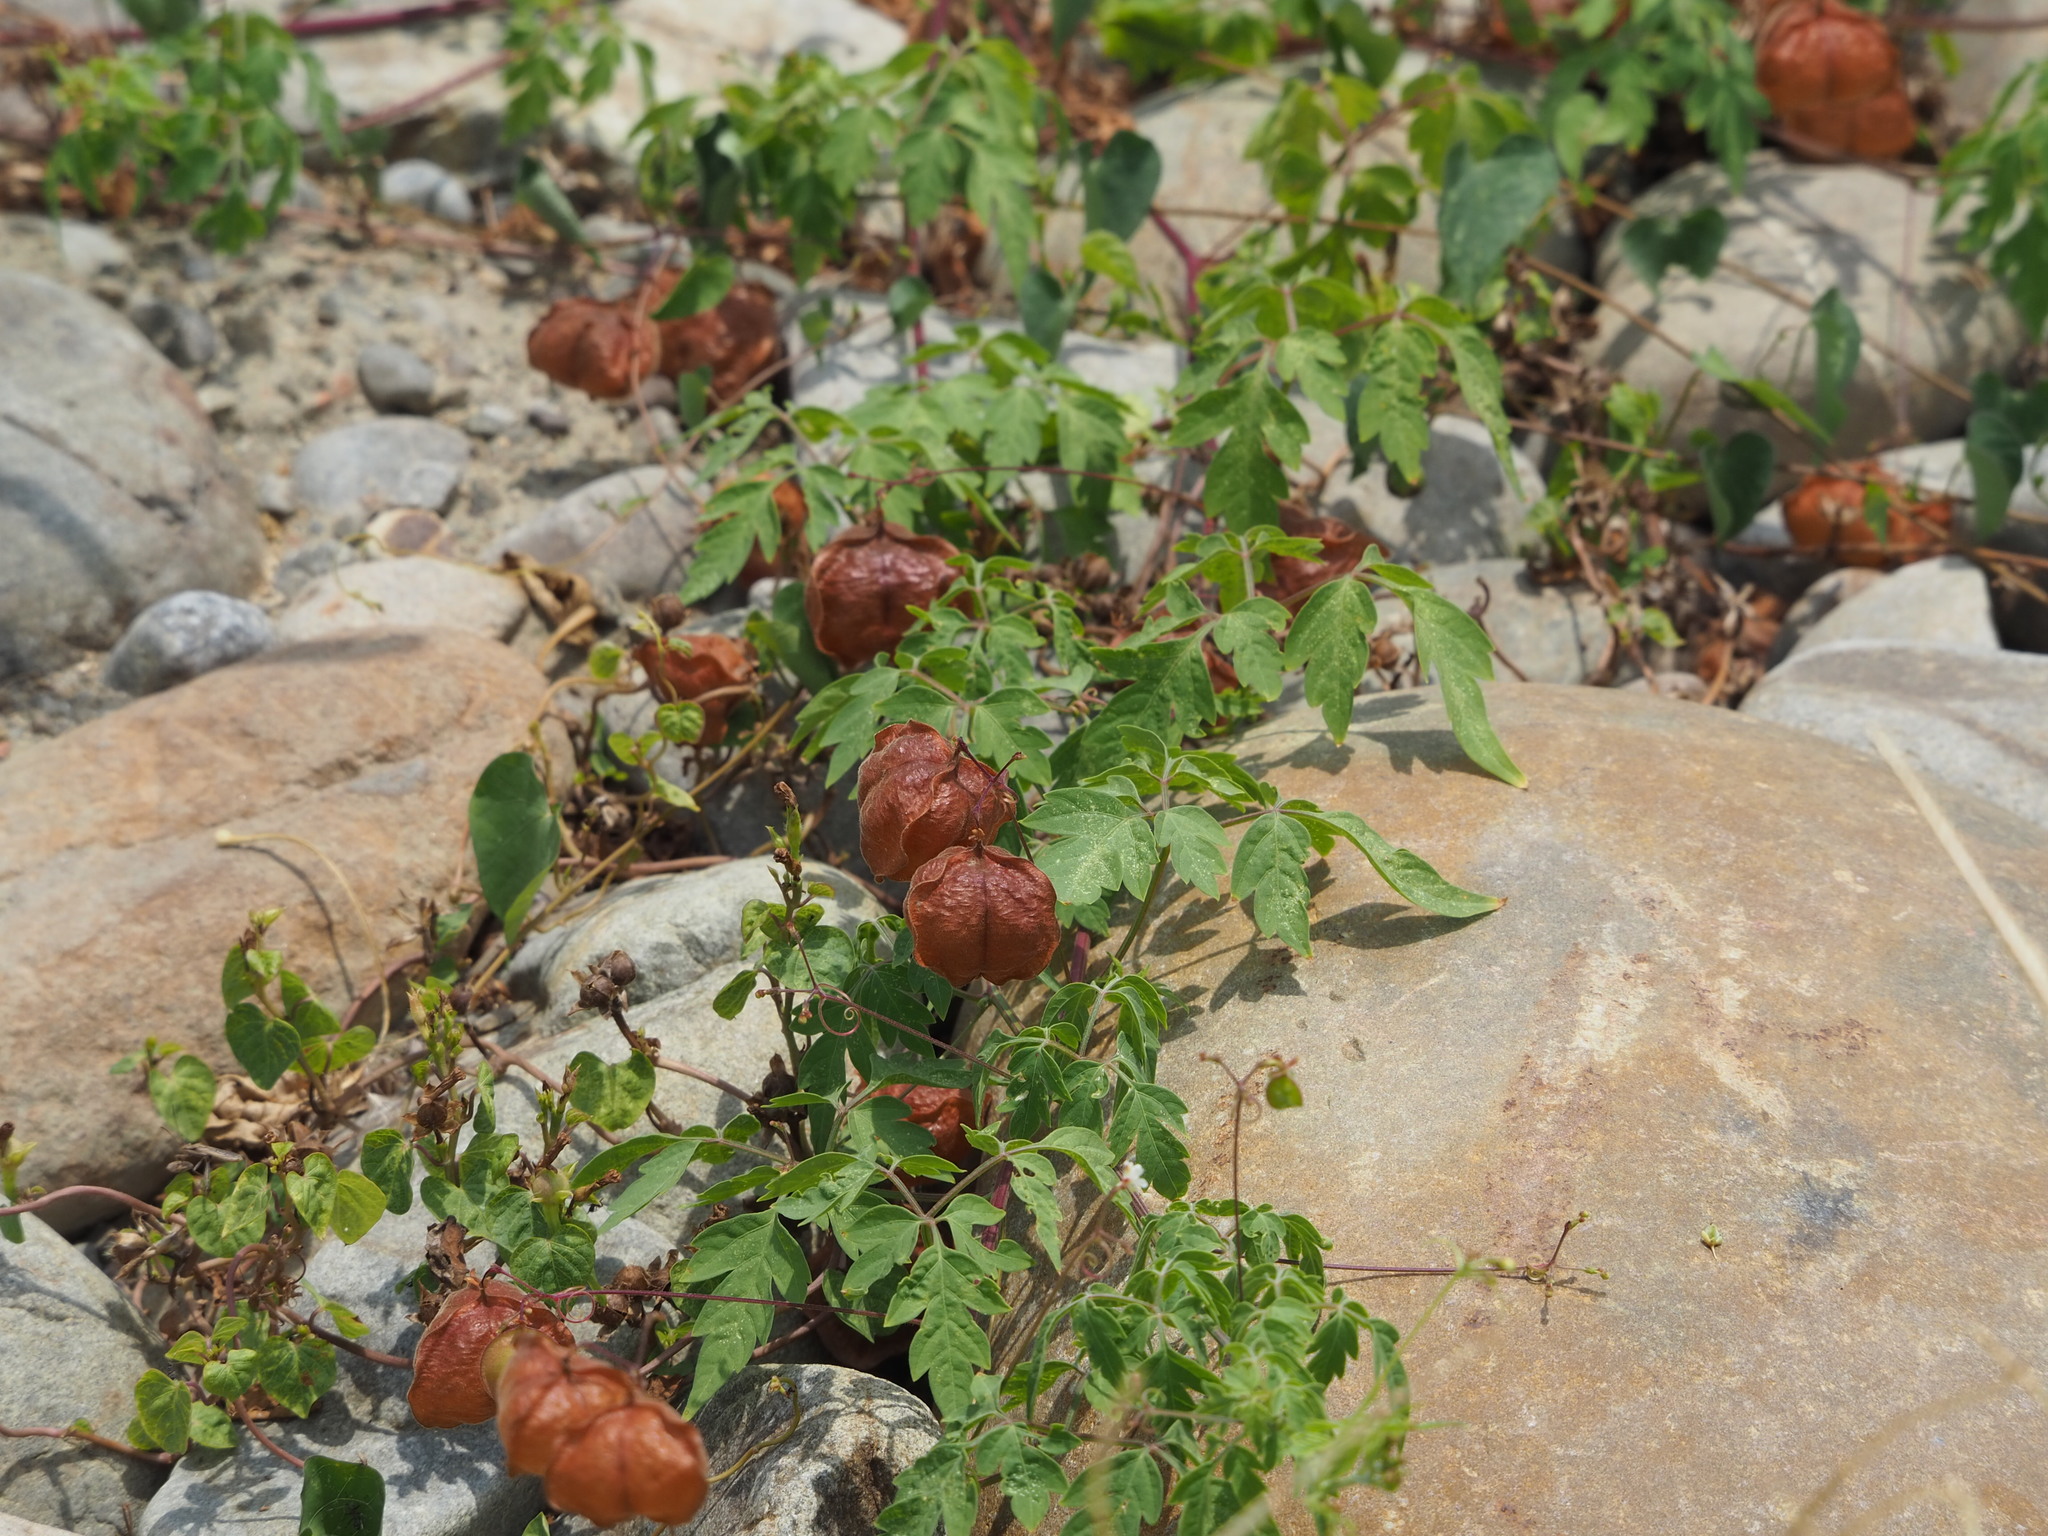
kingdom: Plantae
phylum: Tracheophyta
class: Magnoliopsida
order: Sapindales
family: Sapindaceae
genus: Cardiospermum
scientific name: Cardiospermum halicacabum
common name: Balloon vine
